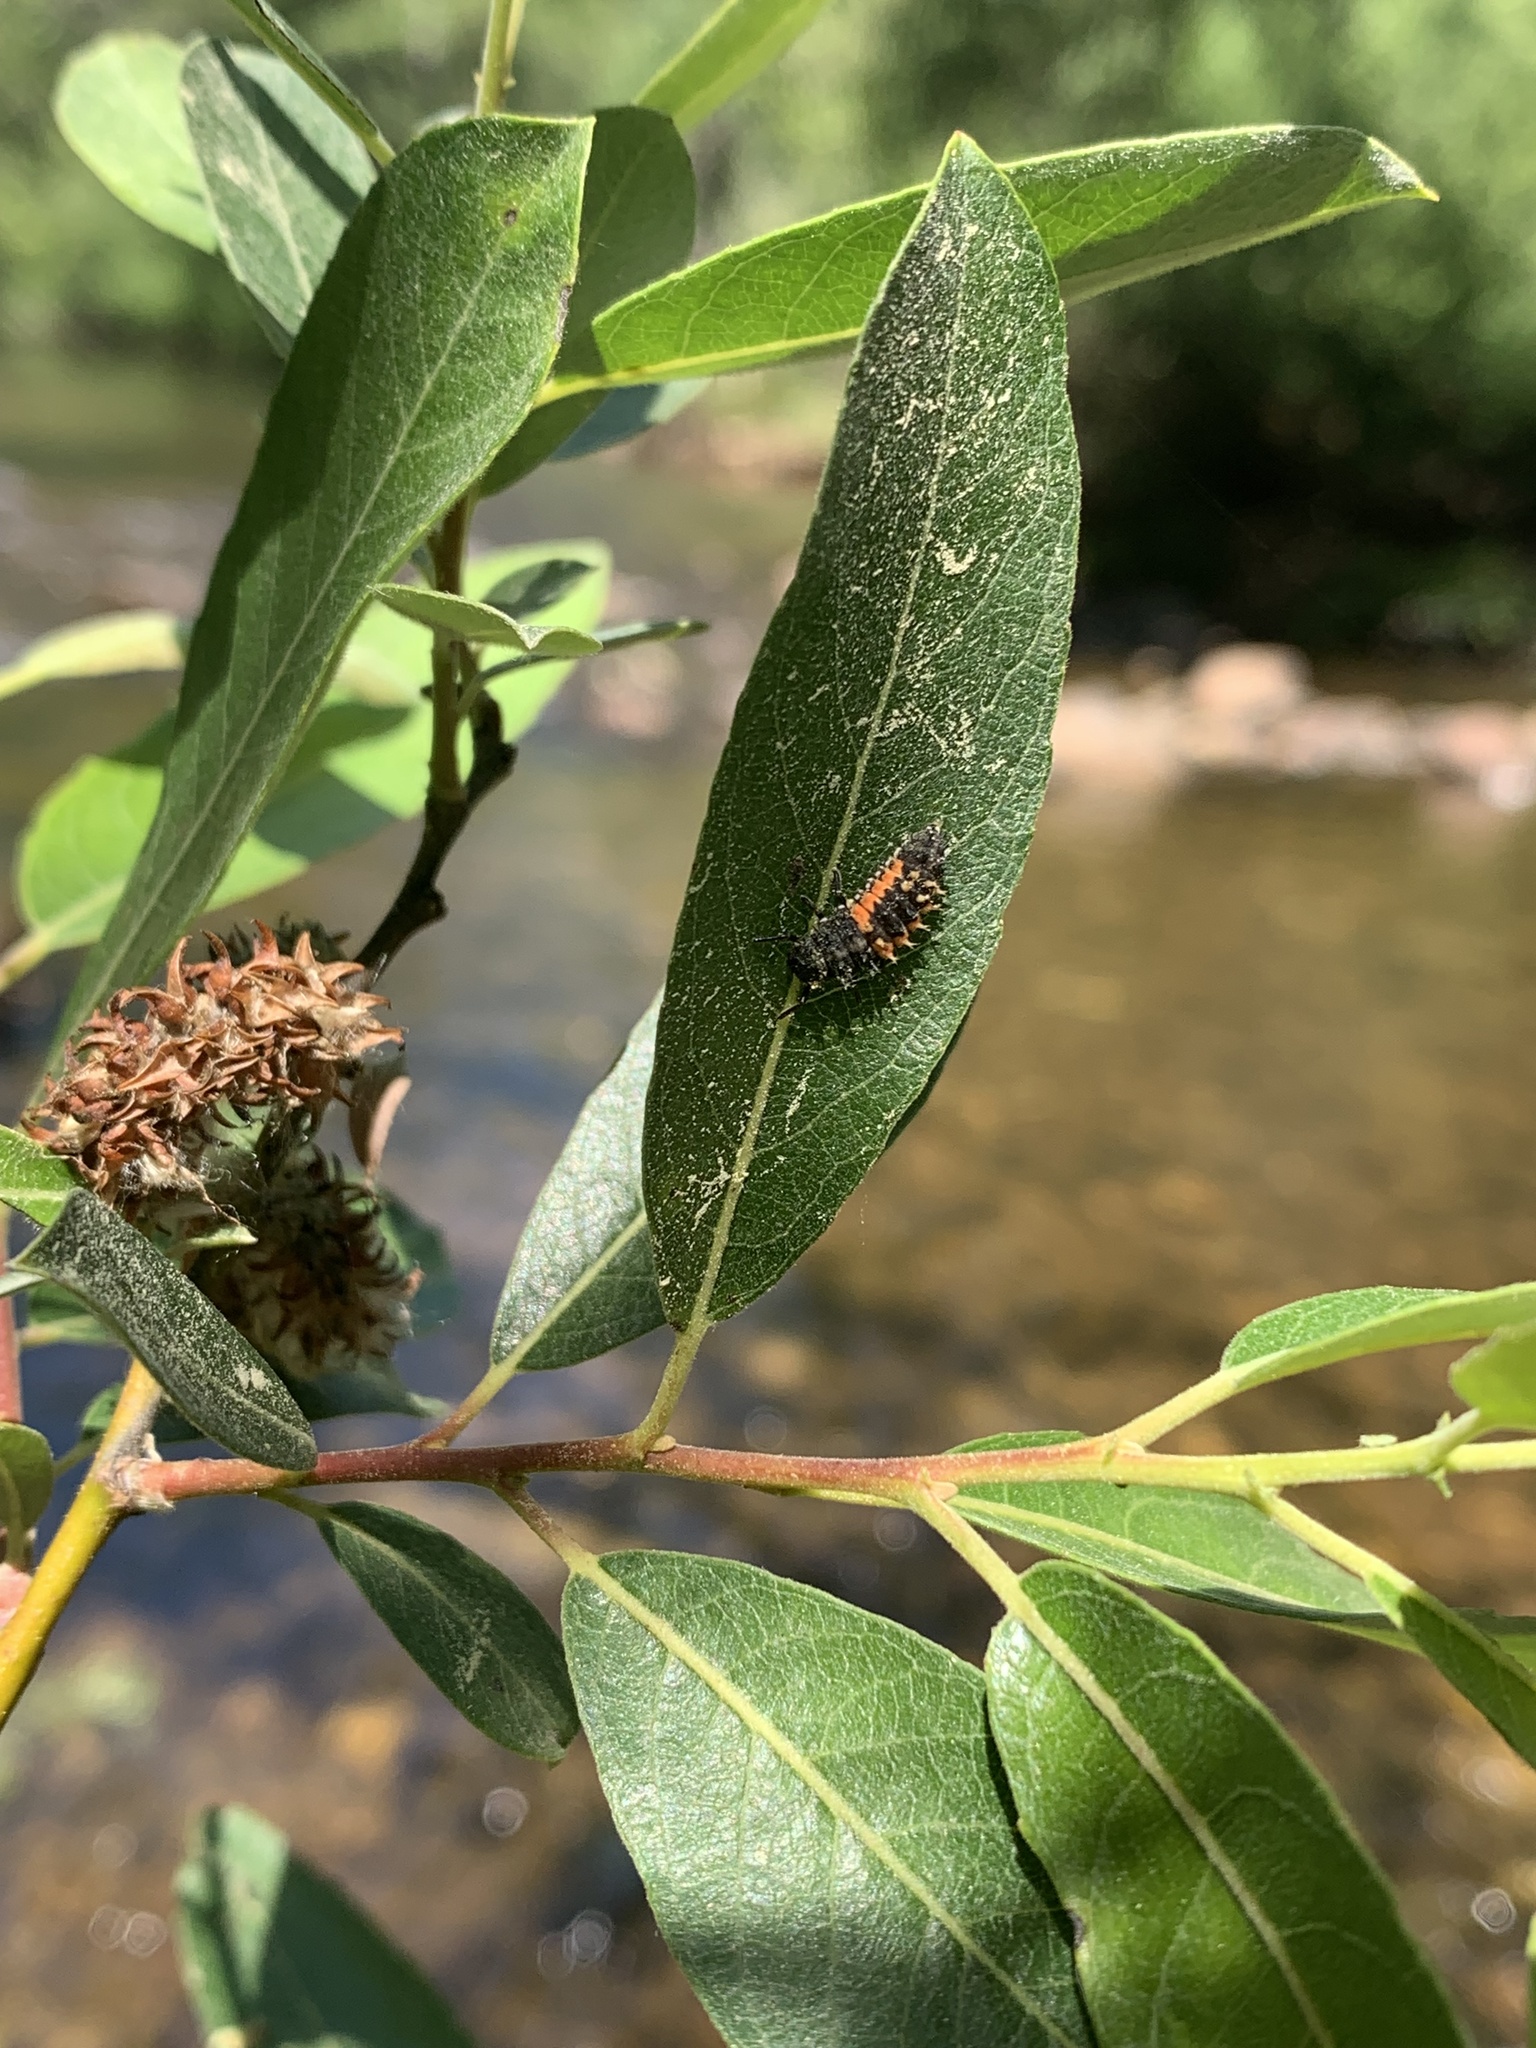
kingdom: Animalia
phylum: Arthropoda
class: Insecta
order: Coleoptera
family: Coccinellidae
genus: Harmonia
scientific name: Harmonia axyridis
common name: Harlequin ladybird
